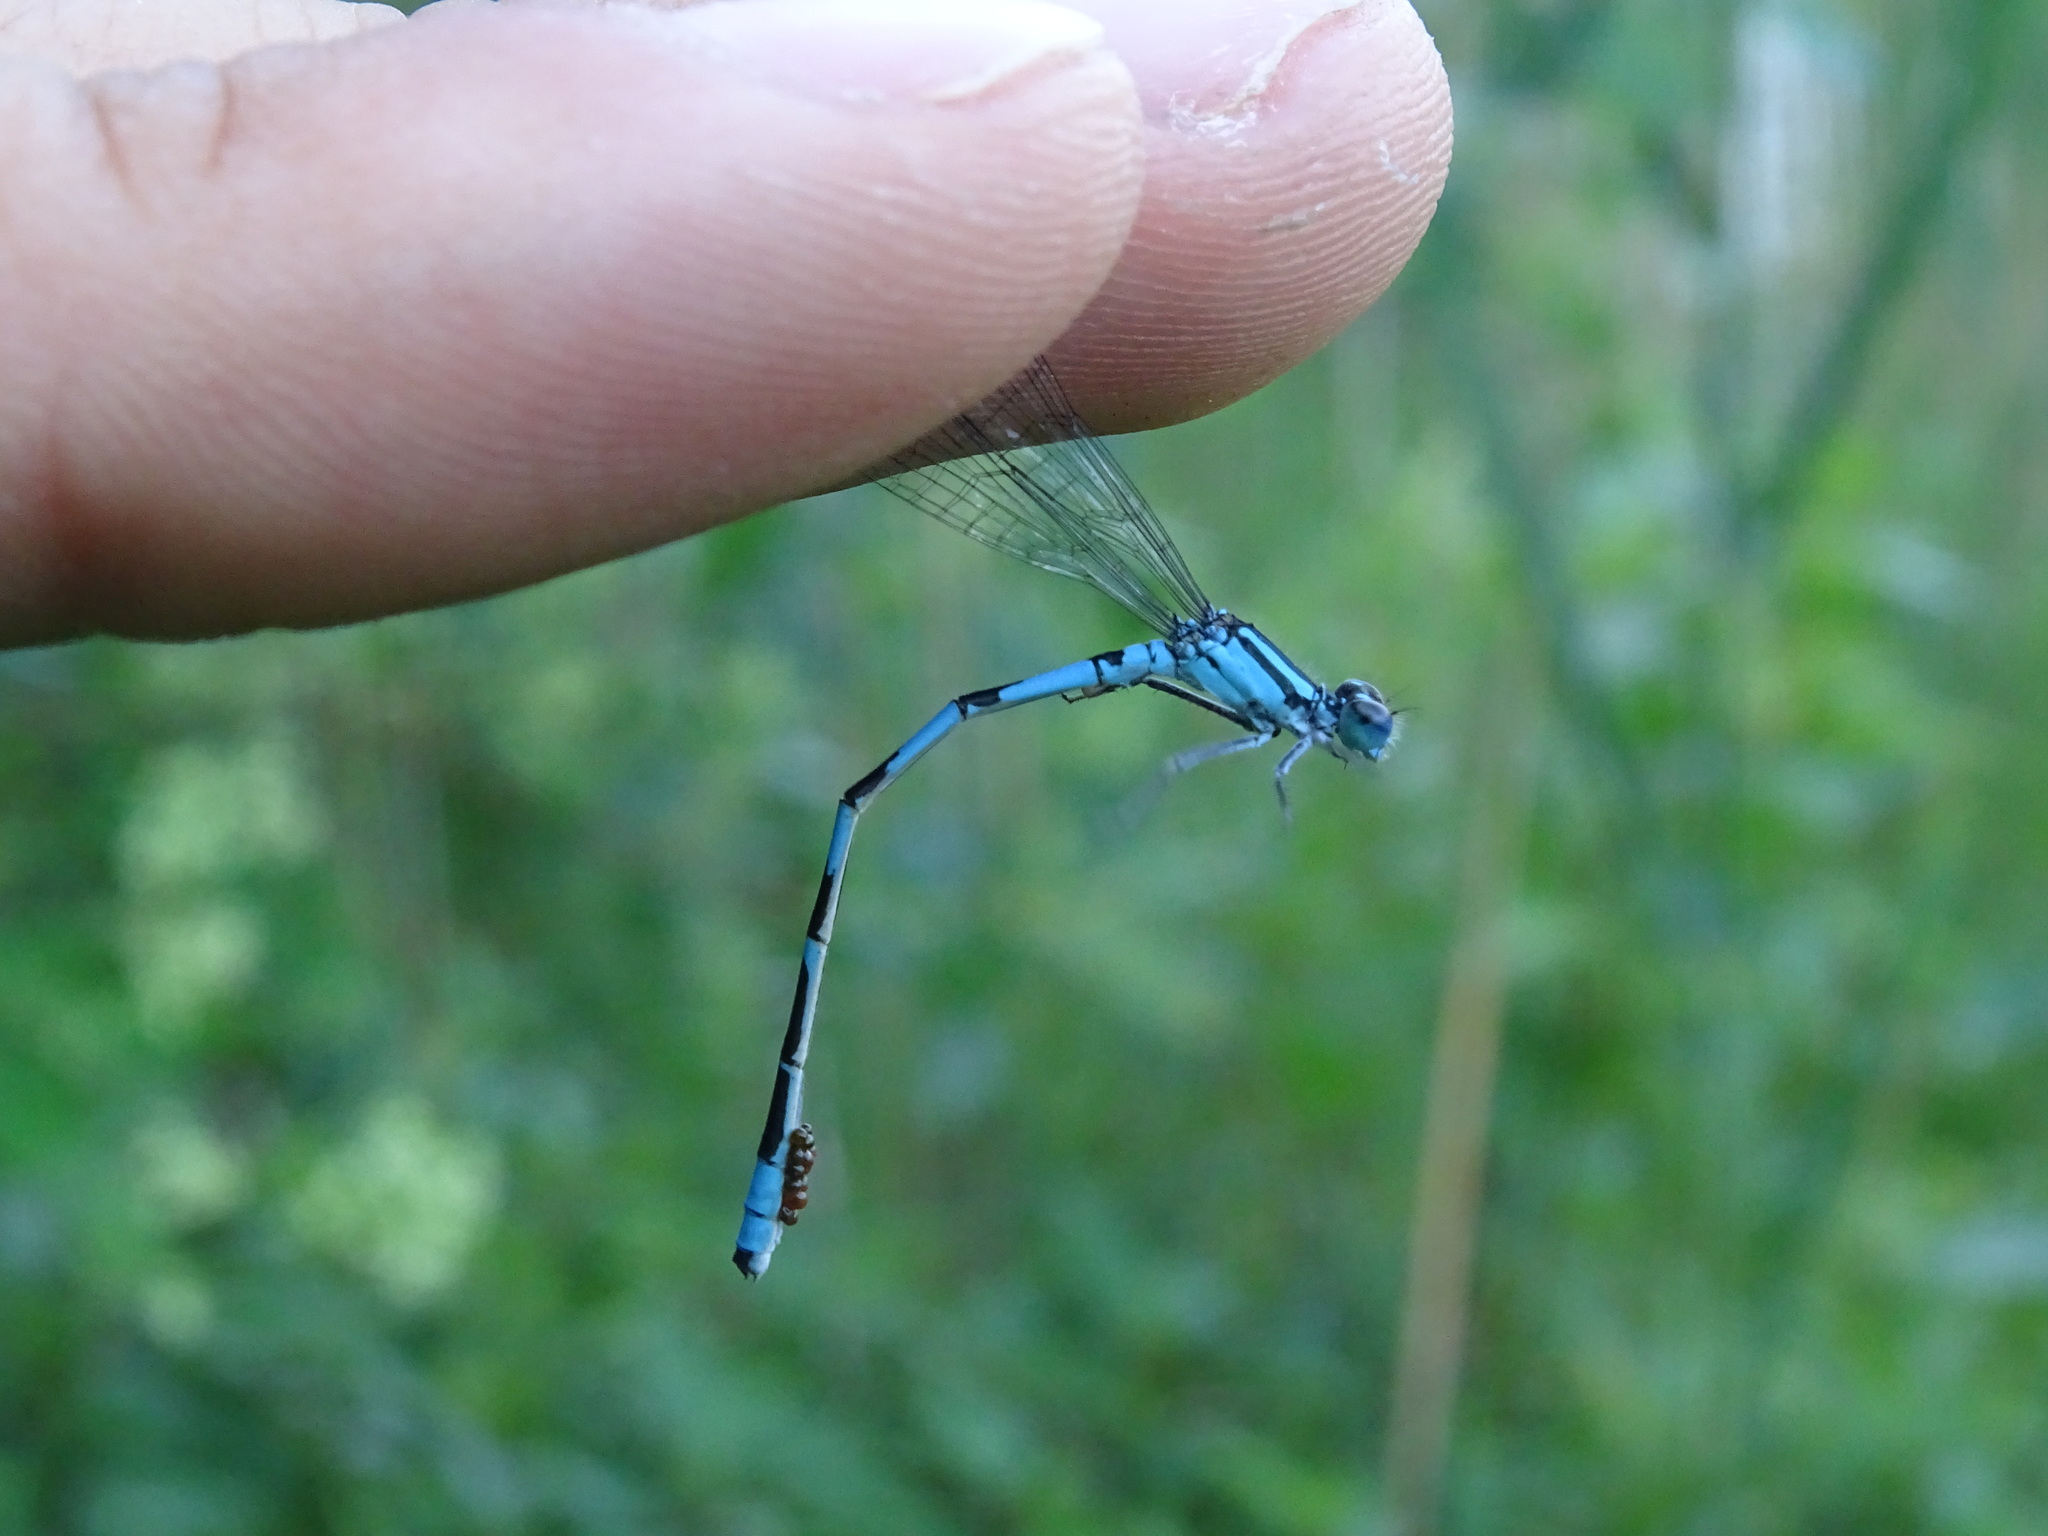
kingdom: Animalia
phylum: Arthropoda
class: Insecta
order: Odonata
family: Coenagrionidae
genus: Enallagma
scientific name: Enallagma hageni
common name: Hagen's bluet
